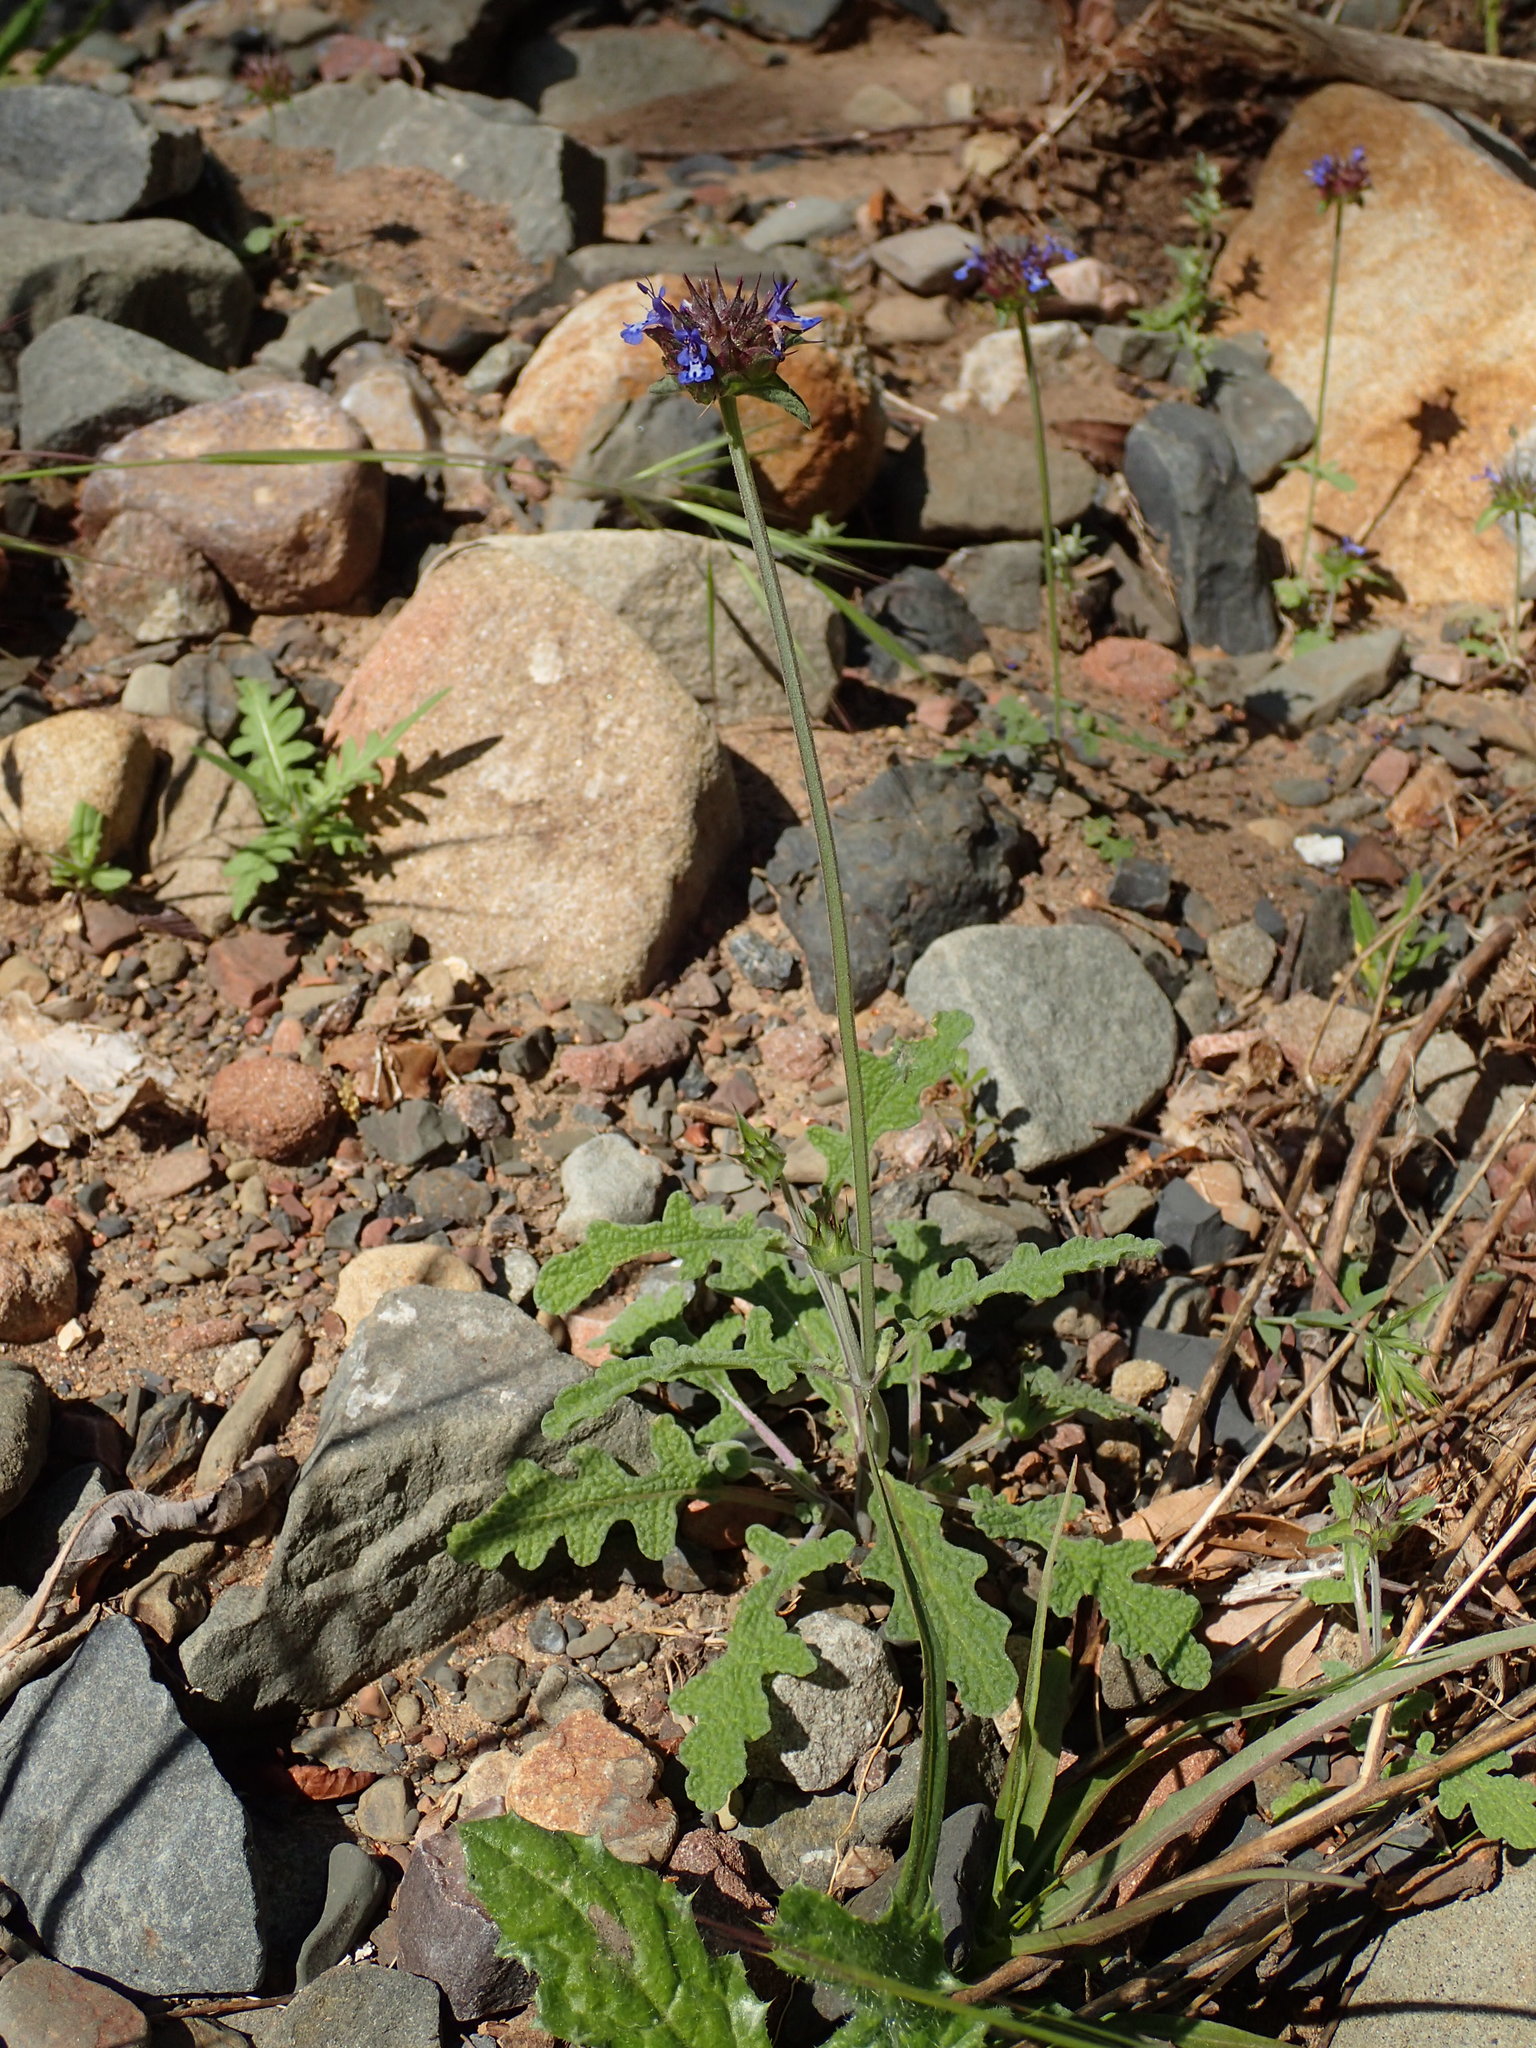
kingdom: Plantae
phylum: Tracheophyta
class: Magnoliopsida
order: Lamiales
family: Lamiaceae
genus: Salvia
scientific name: Salvia columbariae
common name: Chia
